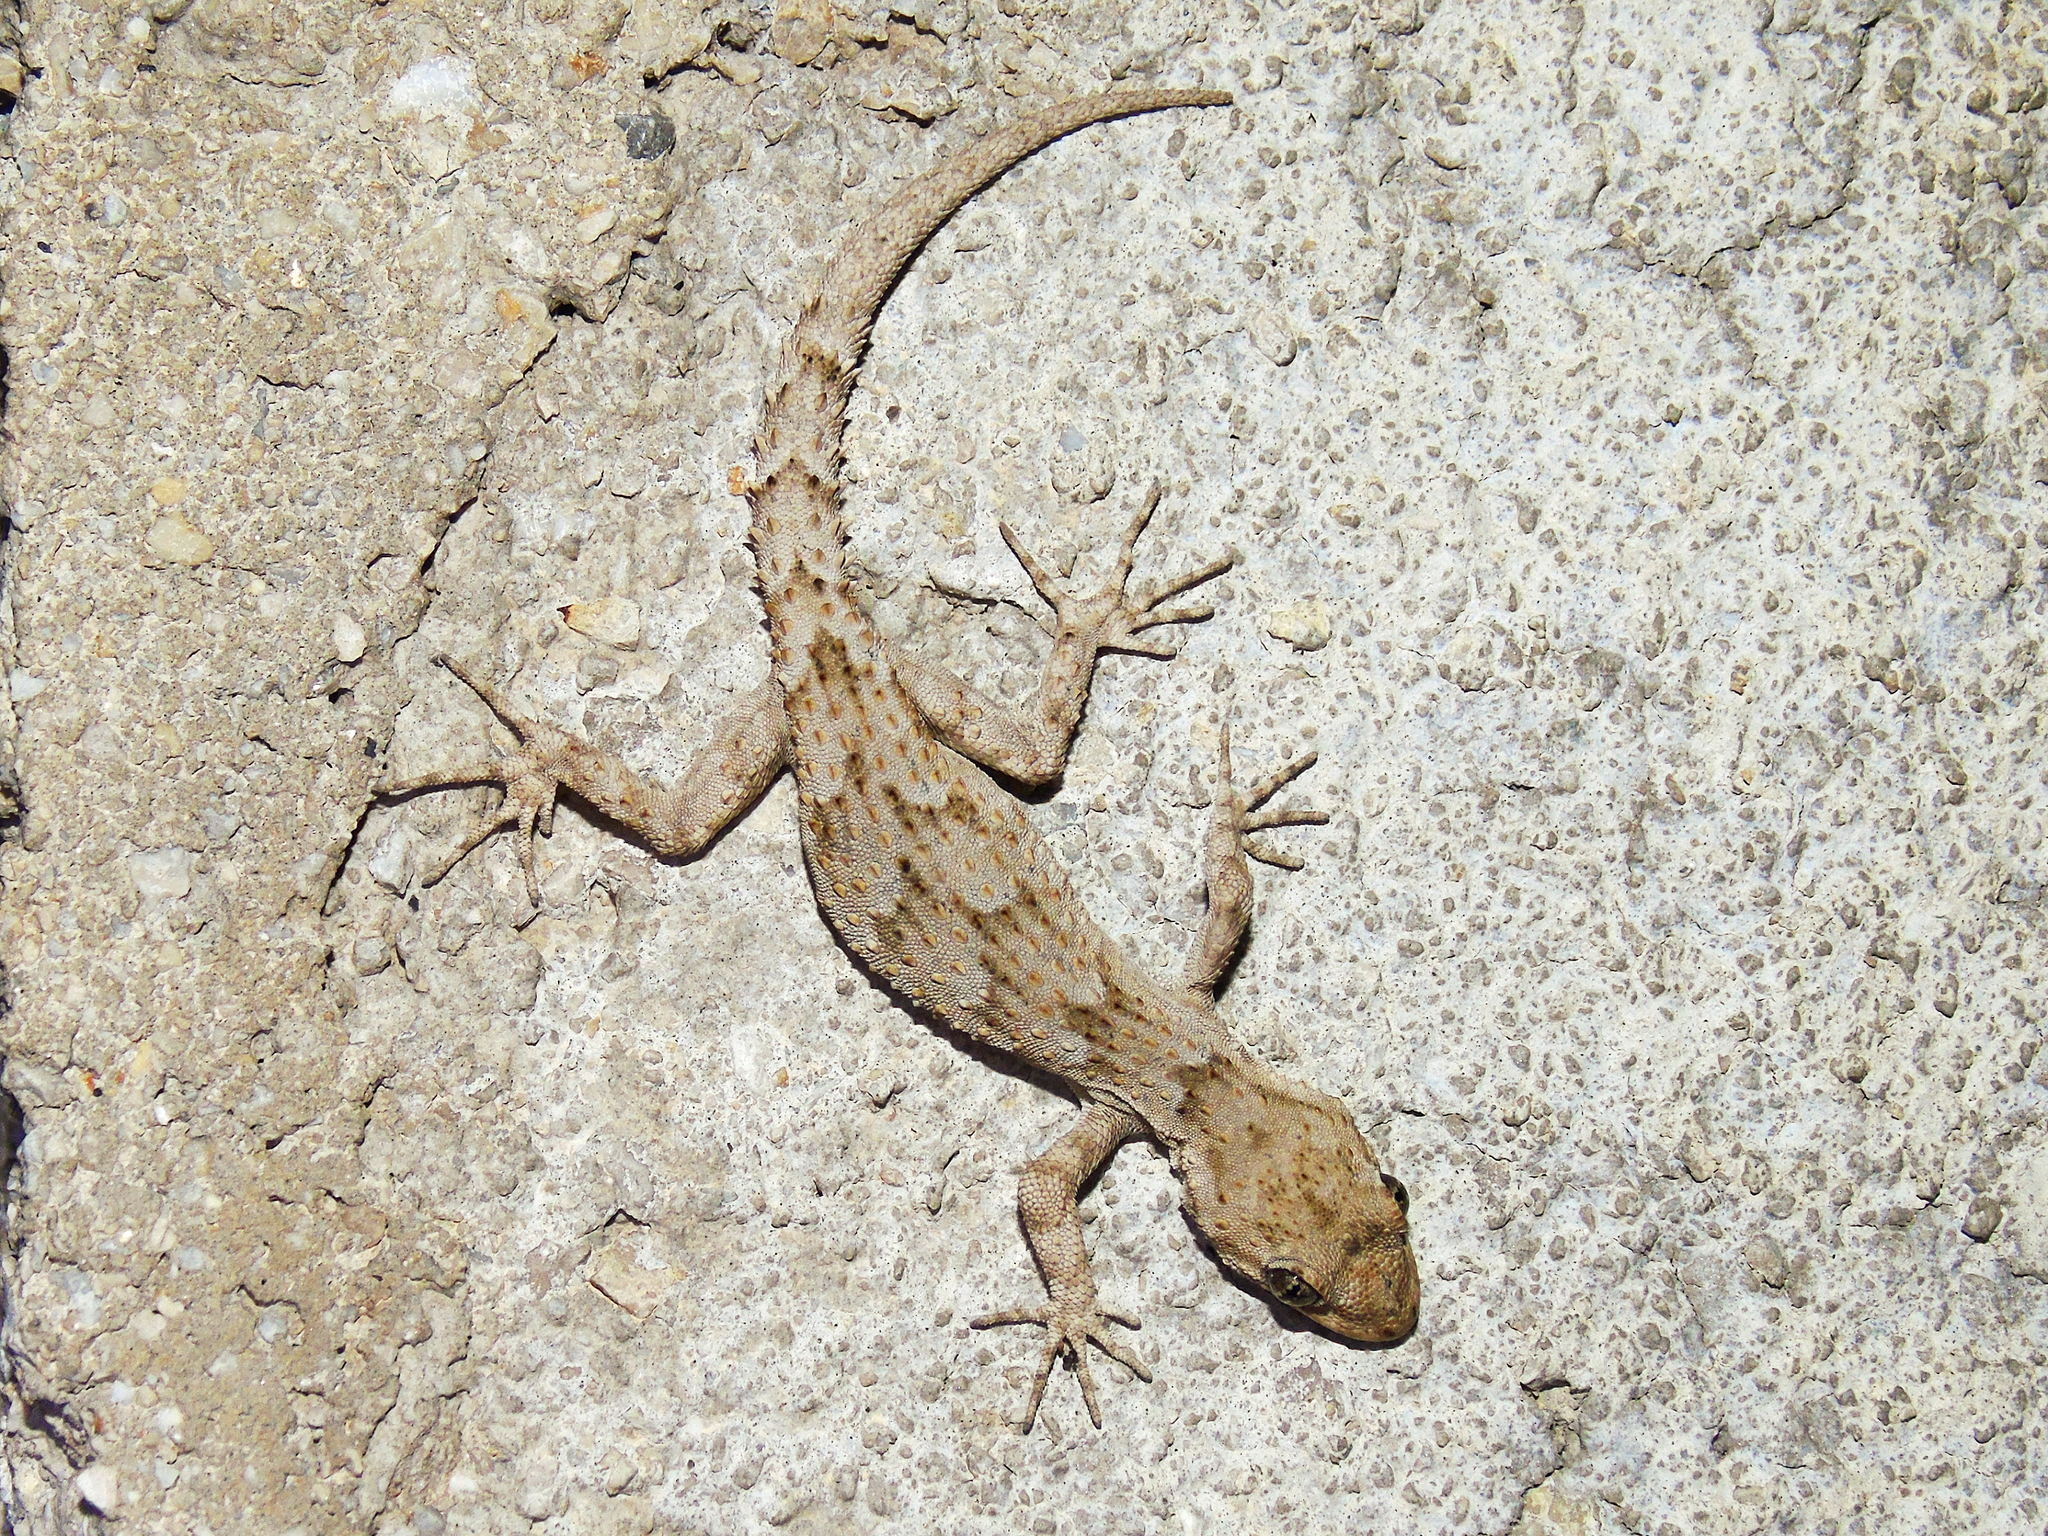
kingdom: Animalia
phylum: Chordata
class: Squamata
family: Gekkonidae
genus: Mediodactylus
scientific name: Mediodactylus kotschyi
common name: Kotschy's gecko
